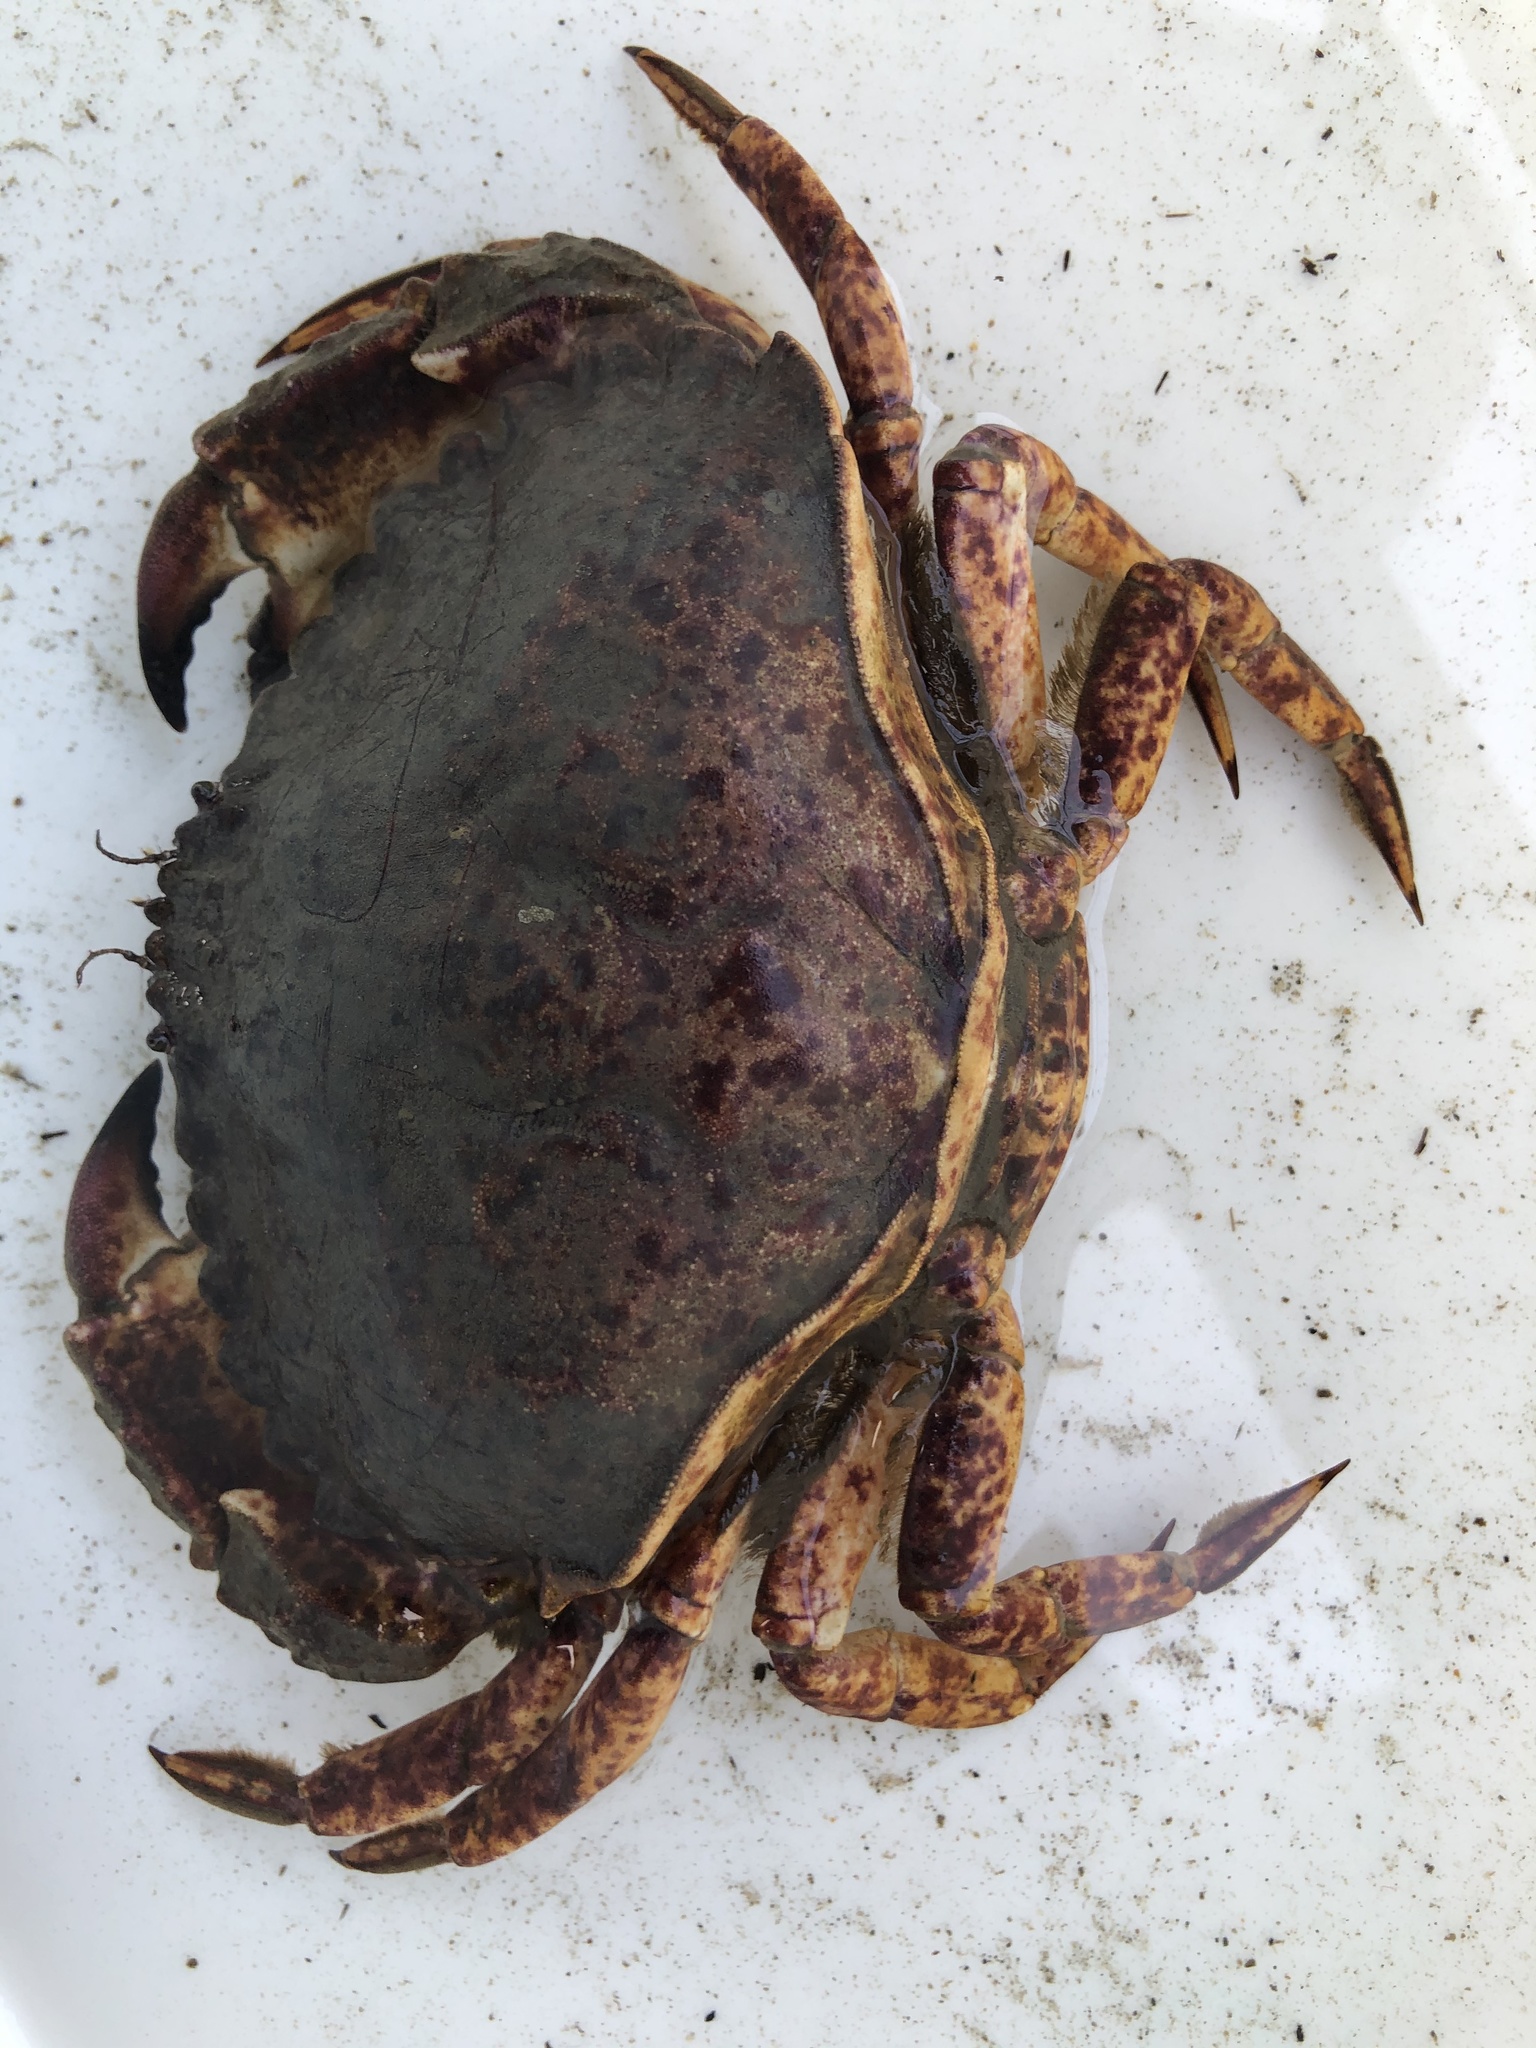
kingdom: Animalia
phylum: Arthropoda
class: Malacostraca
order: Decapoda
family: Cancridae
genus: Cancer
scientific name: Cancer productus
